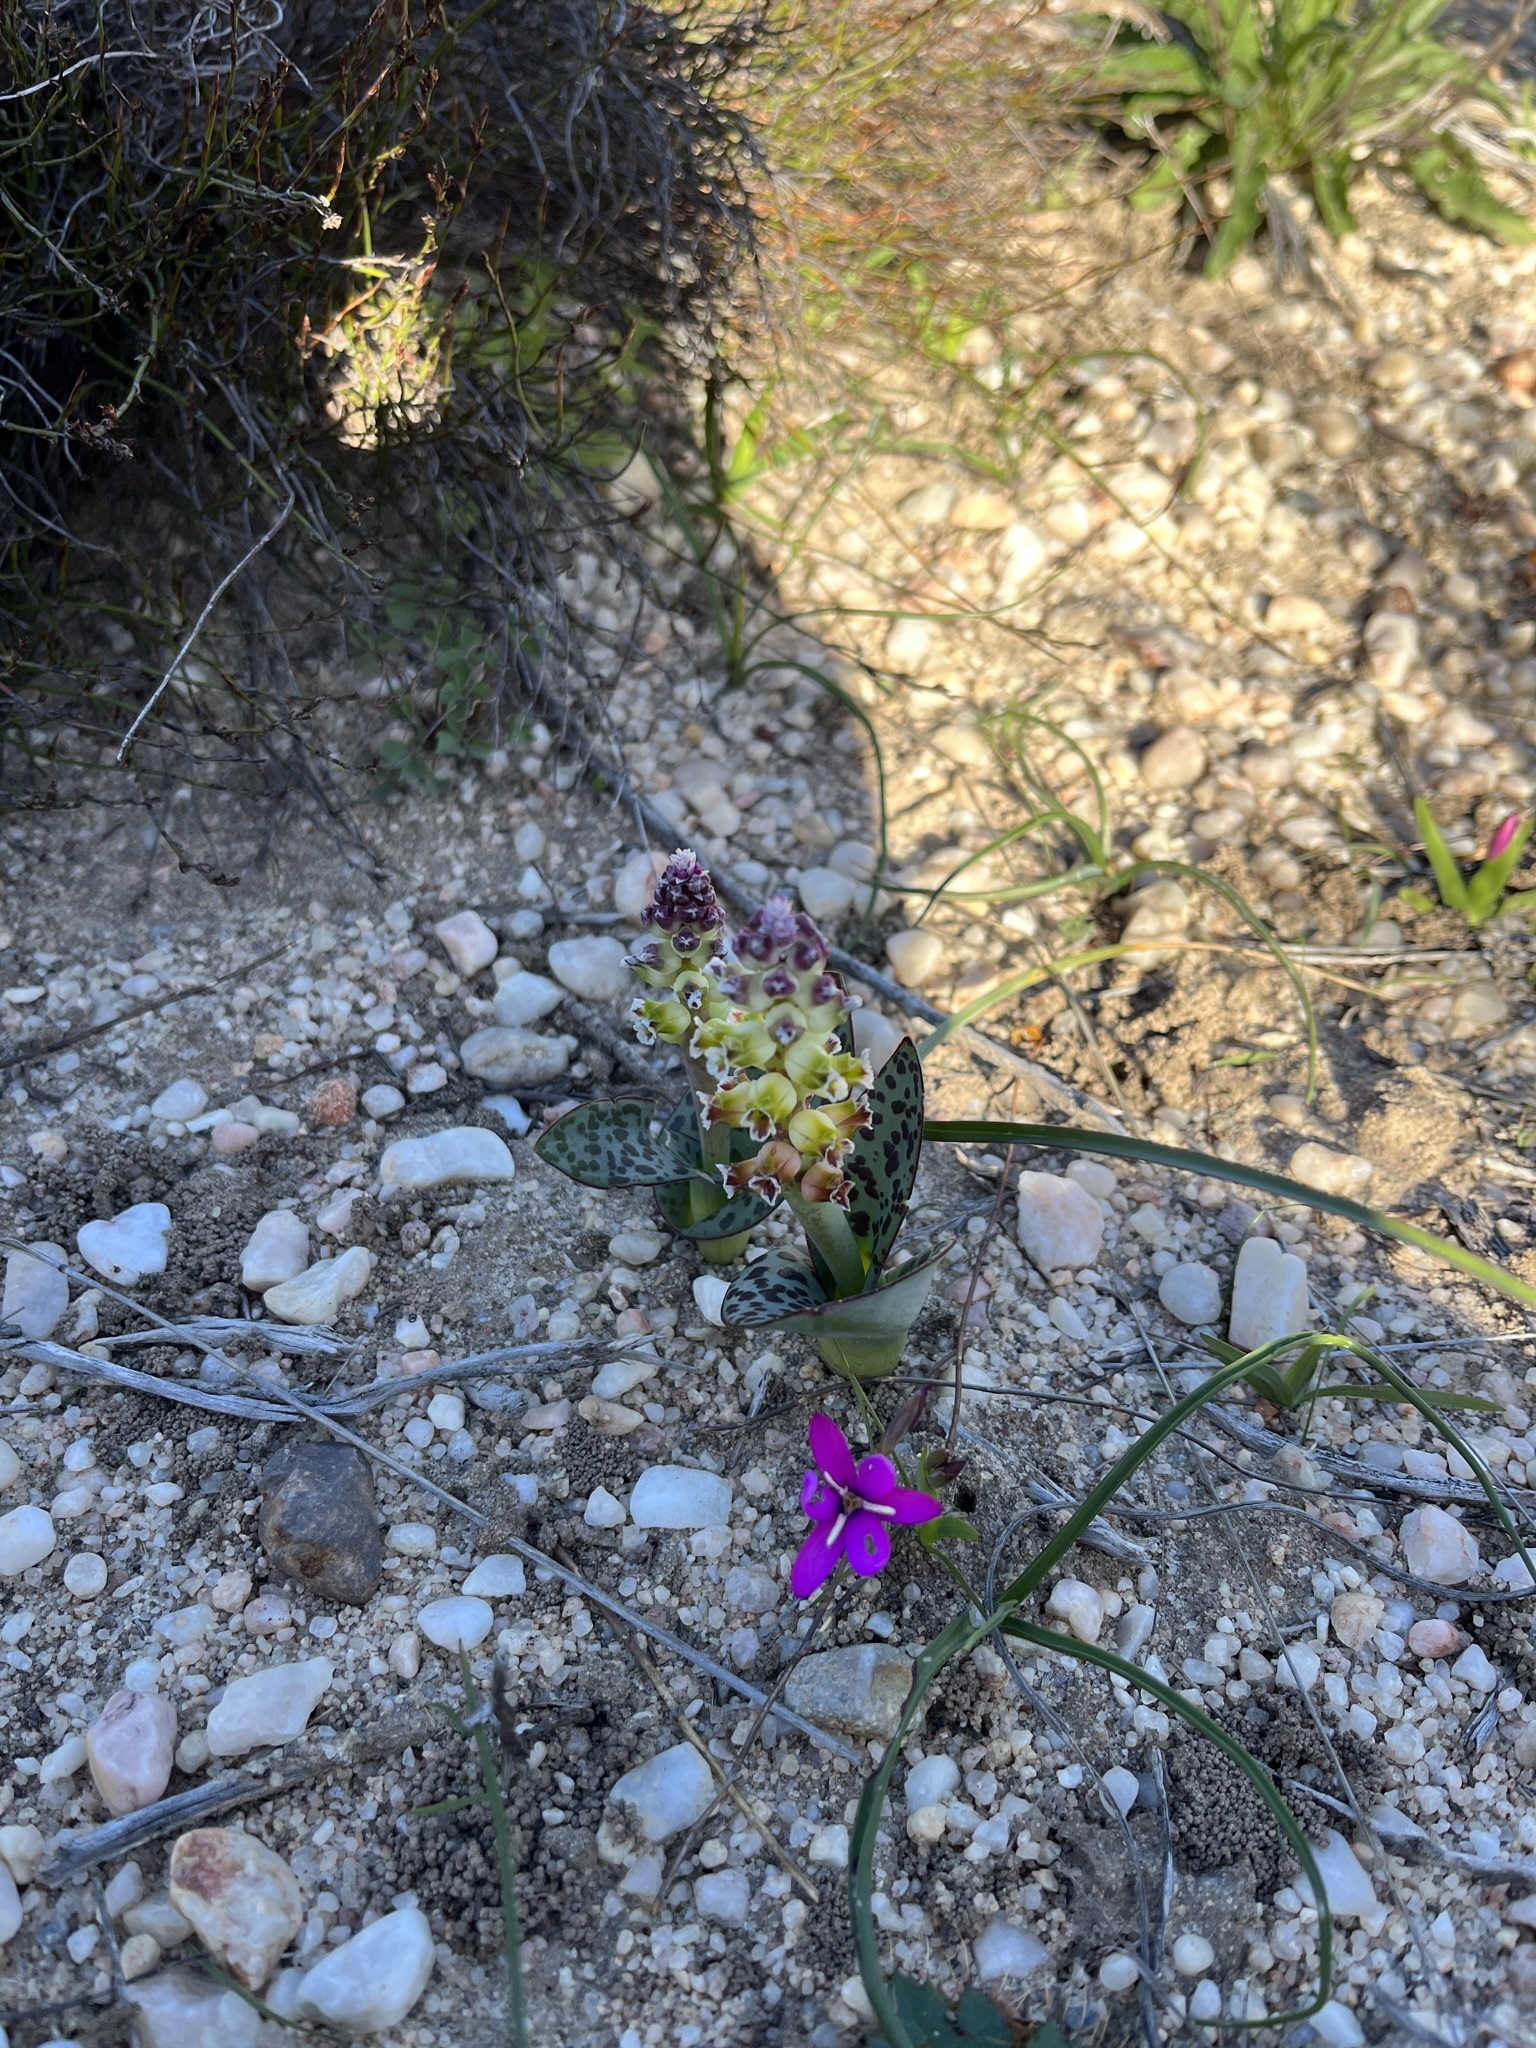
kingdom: Plantae
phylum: Tracheophyta
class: Liliopsida
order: Asparagales
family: Asparagaceae
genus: Lachenalia
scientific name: Lachenalia membranacea
